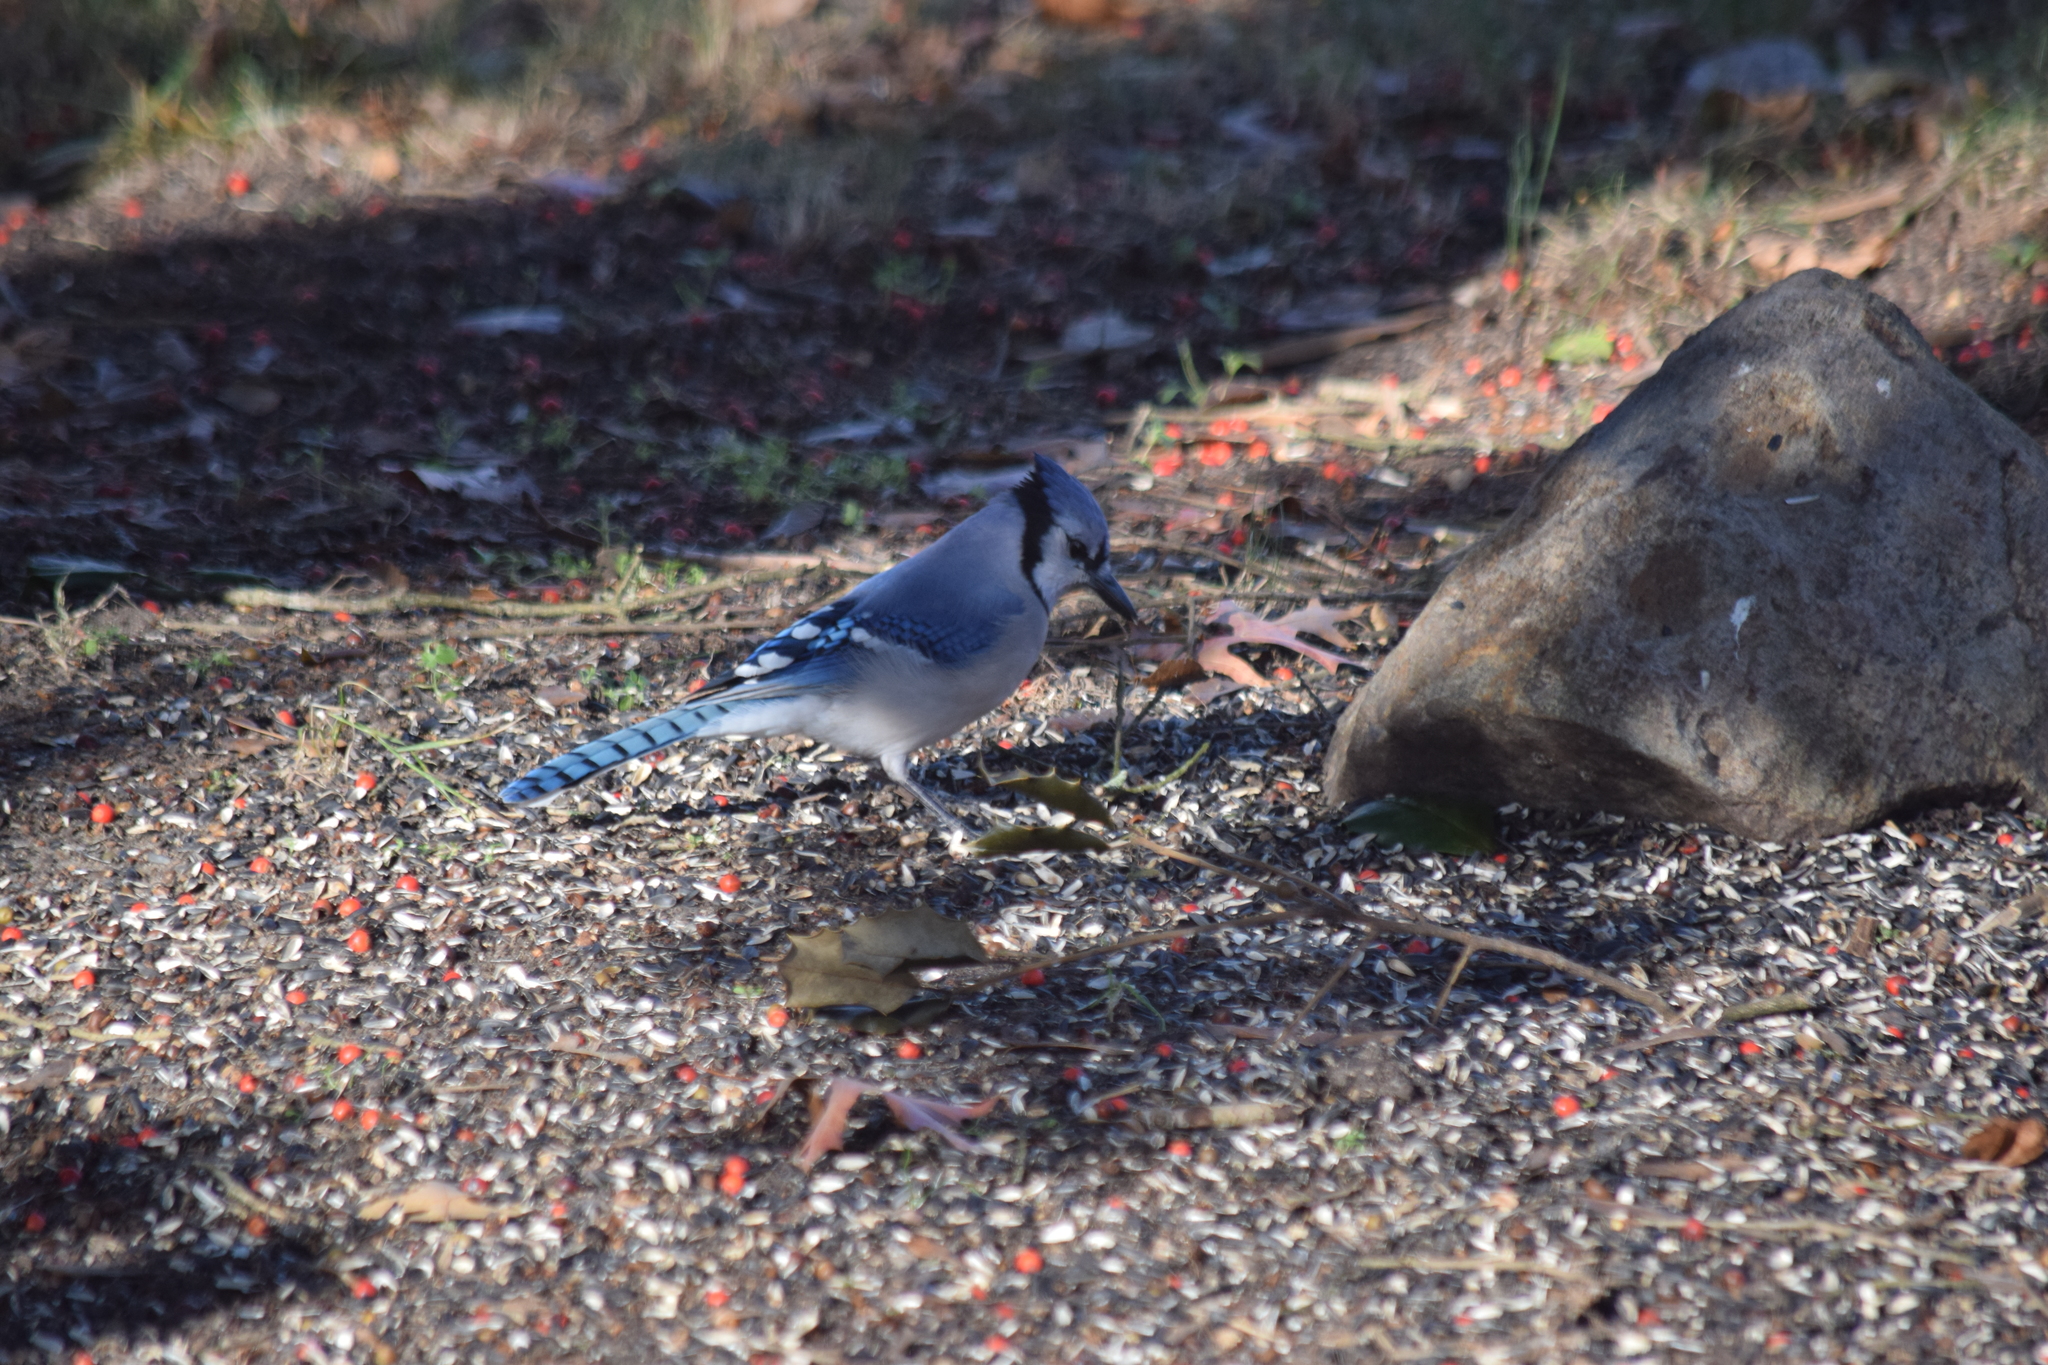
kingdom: Animalia
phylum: Chordata
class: Aves
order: Passeriformes
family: Corvidae
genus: Cyanocitta
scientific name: Cyanocitta cristata
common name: Blue jay
